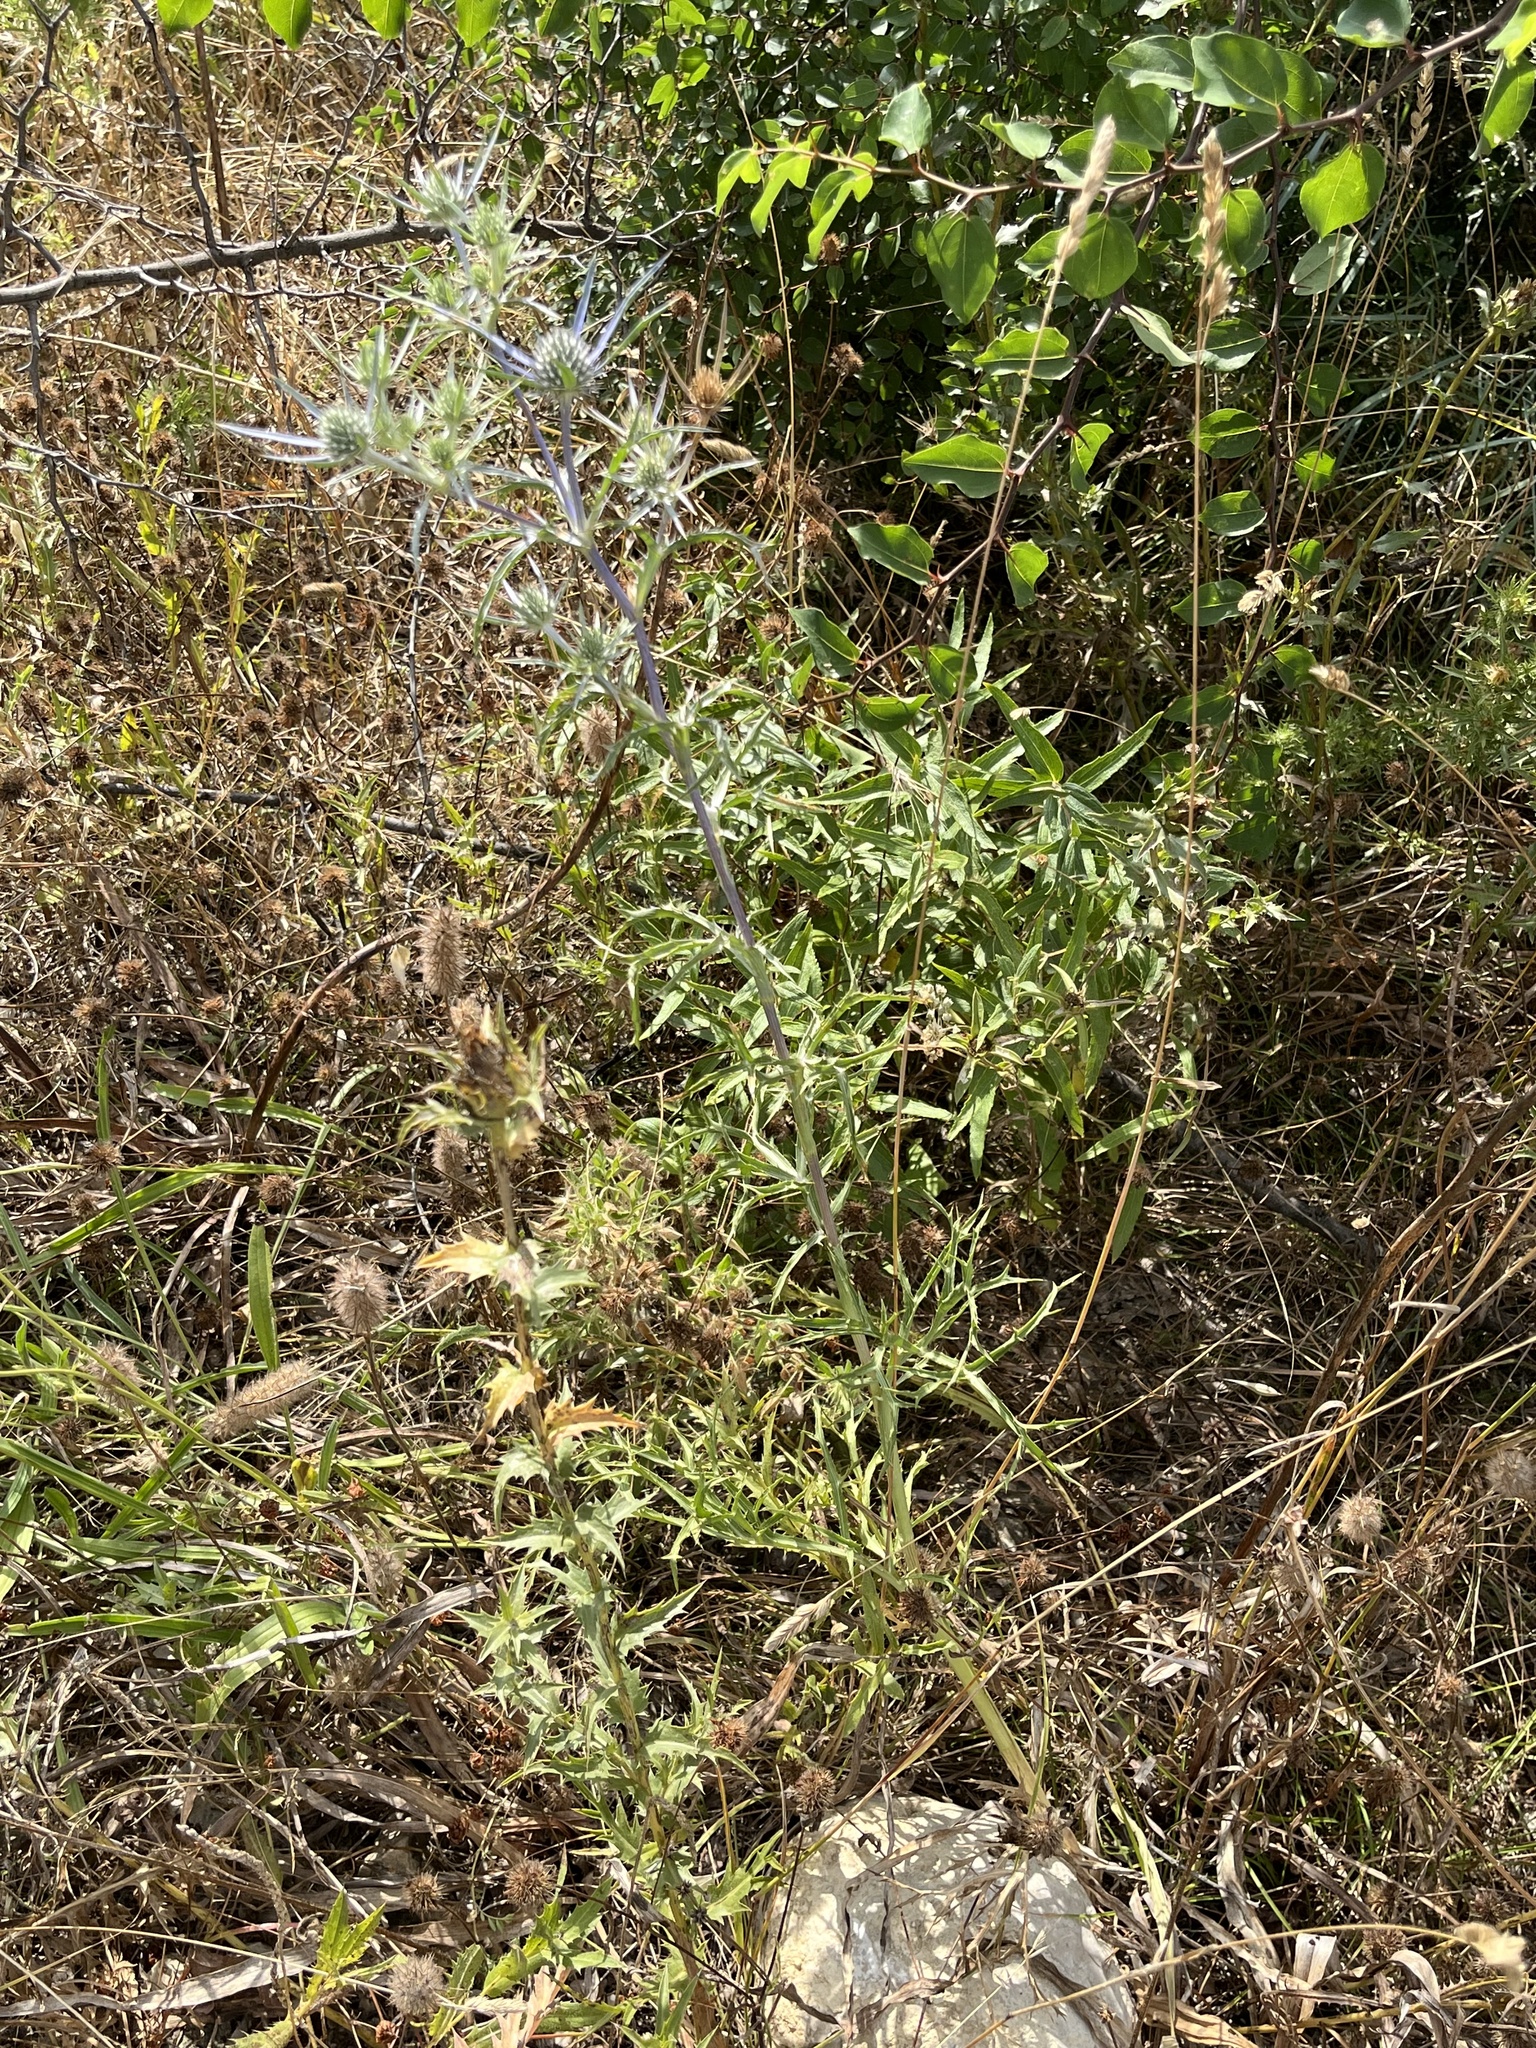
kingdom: Plantae
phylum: Tracheophyta
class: Magnoliopsida
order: Apiales
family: Apiaceae
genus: Eryngium
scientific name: Eryngium amethystinum
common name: Amethyst eryngo
